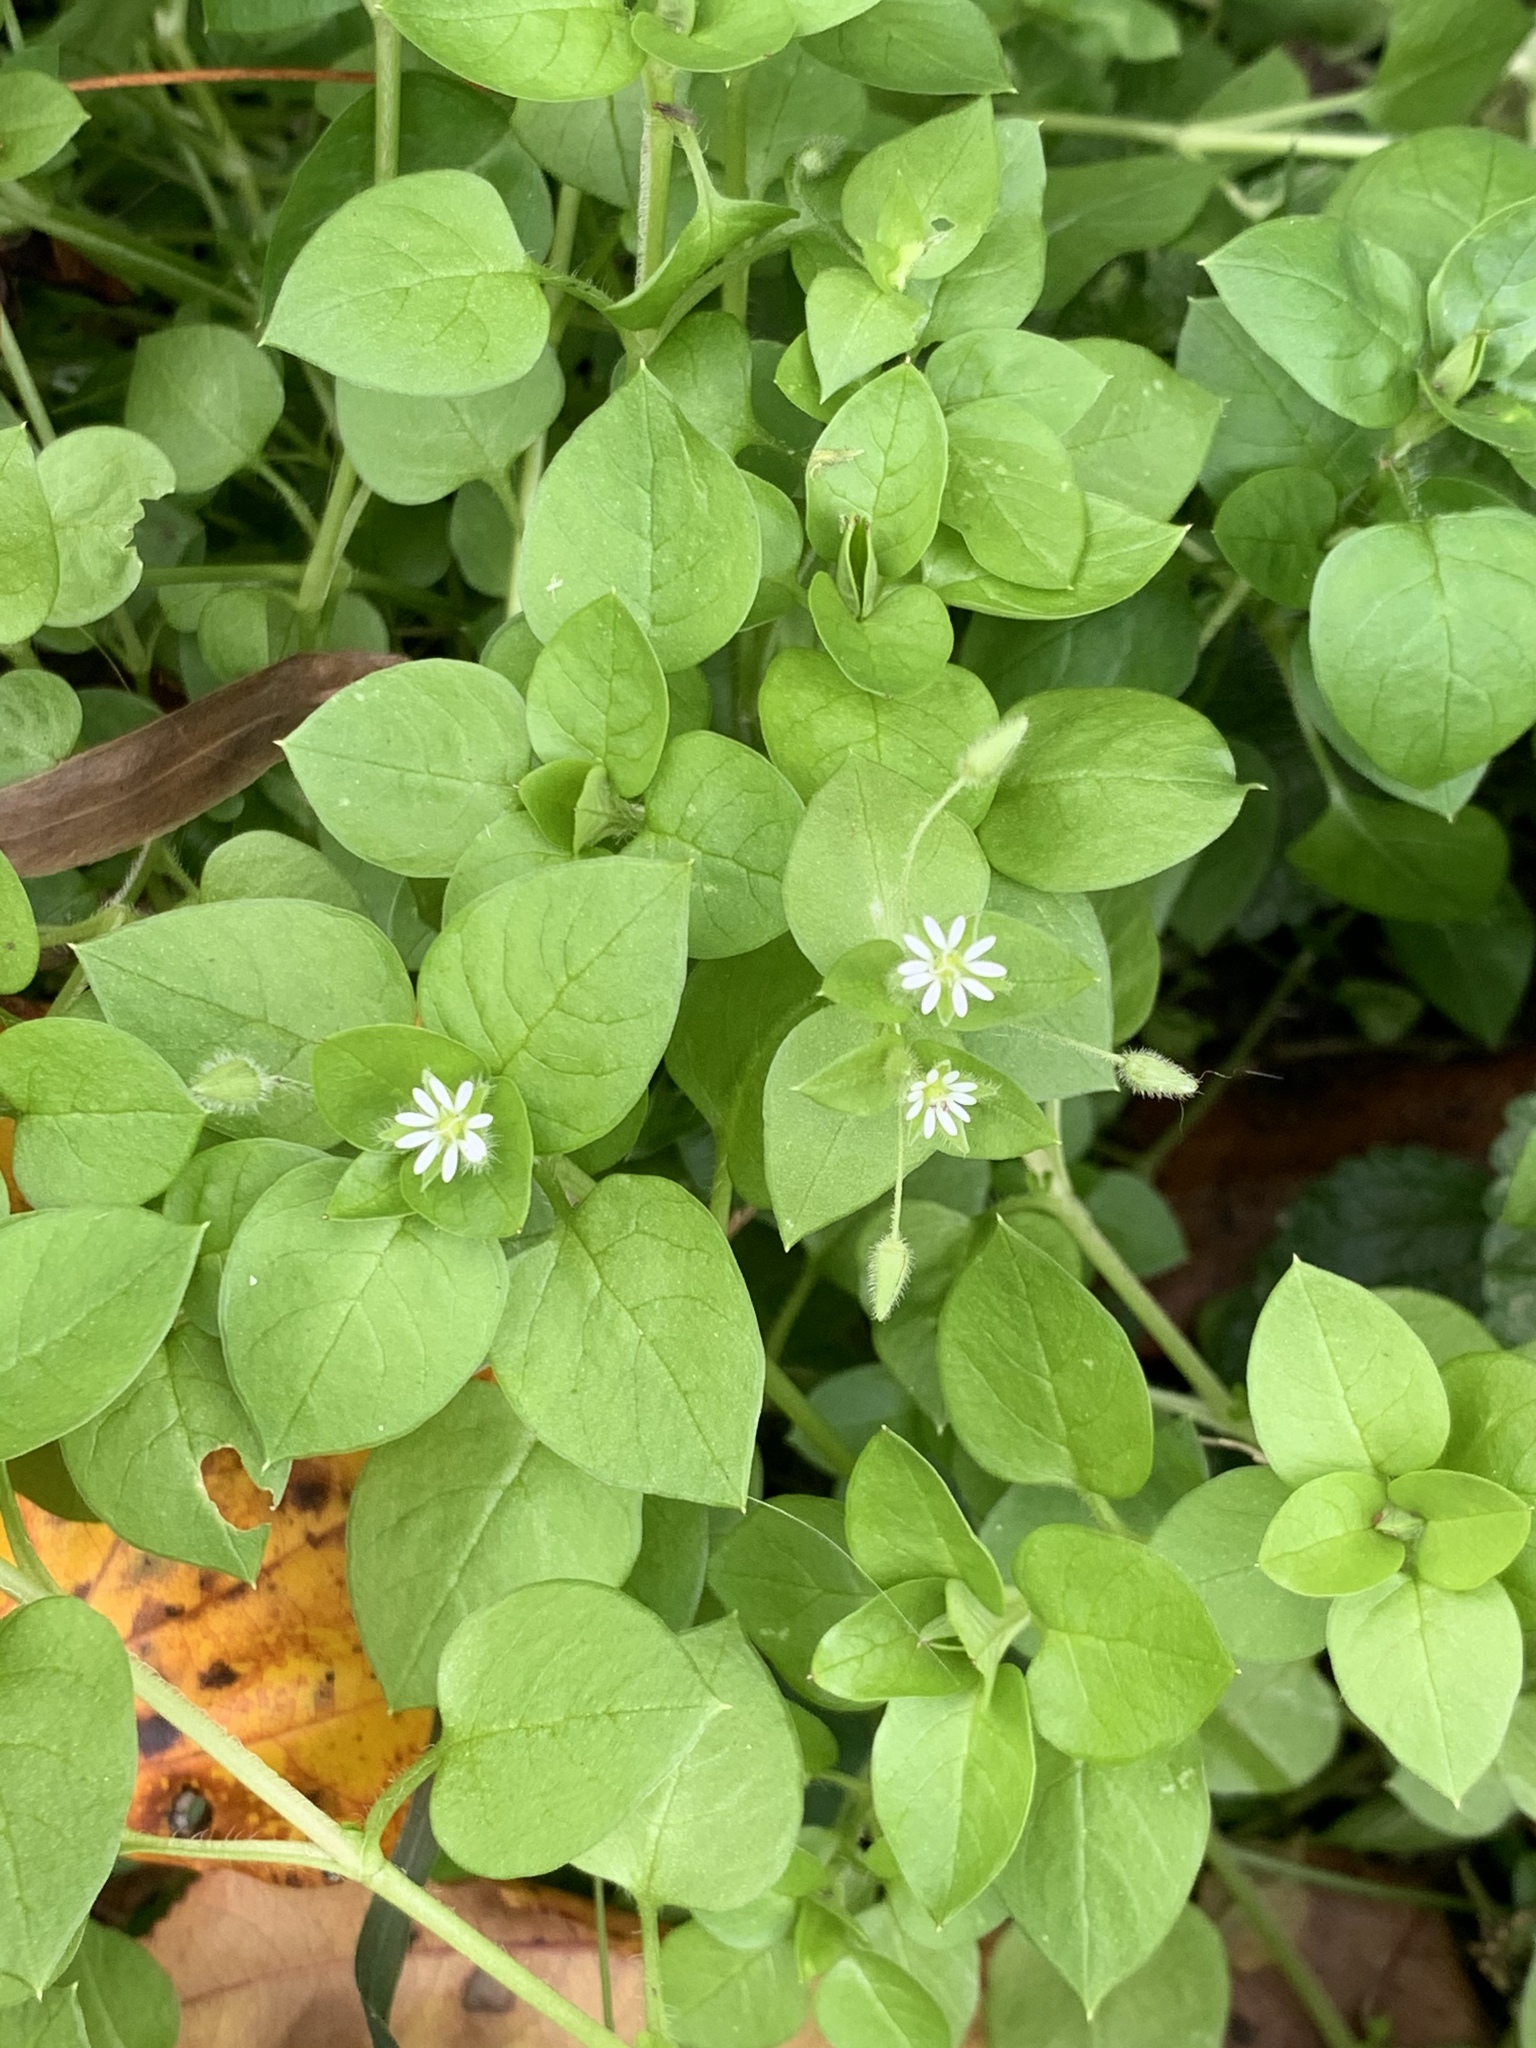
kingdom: Plantae
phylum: Tracheophyta
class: Magnoliopsida
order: Caryophyllales
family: Caryophyllaceae
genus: Stellaria
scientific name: Stellaria media
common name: Common chickweed
